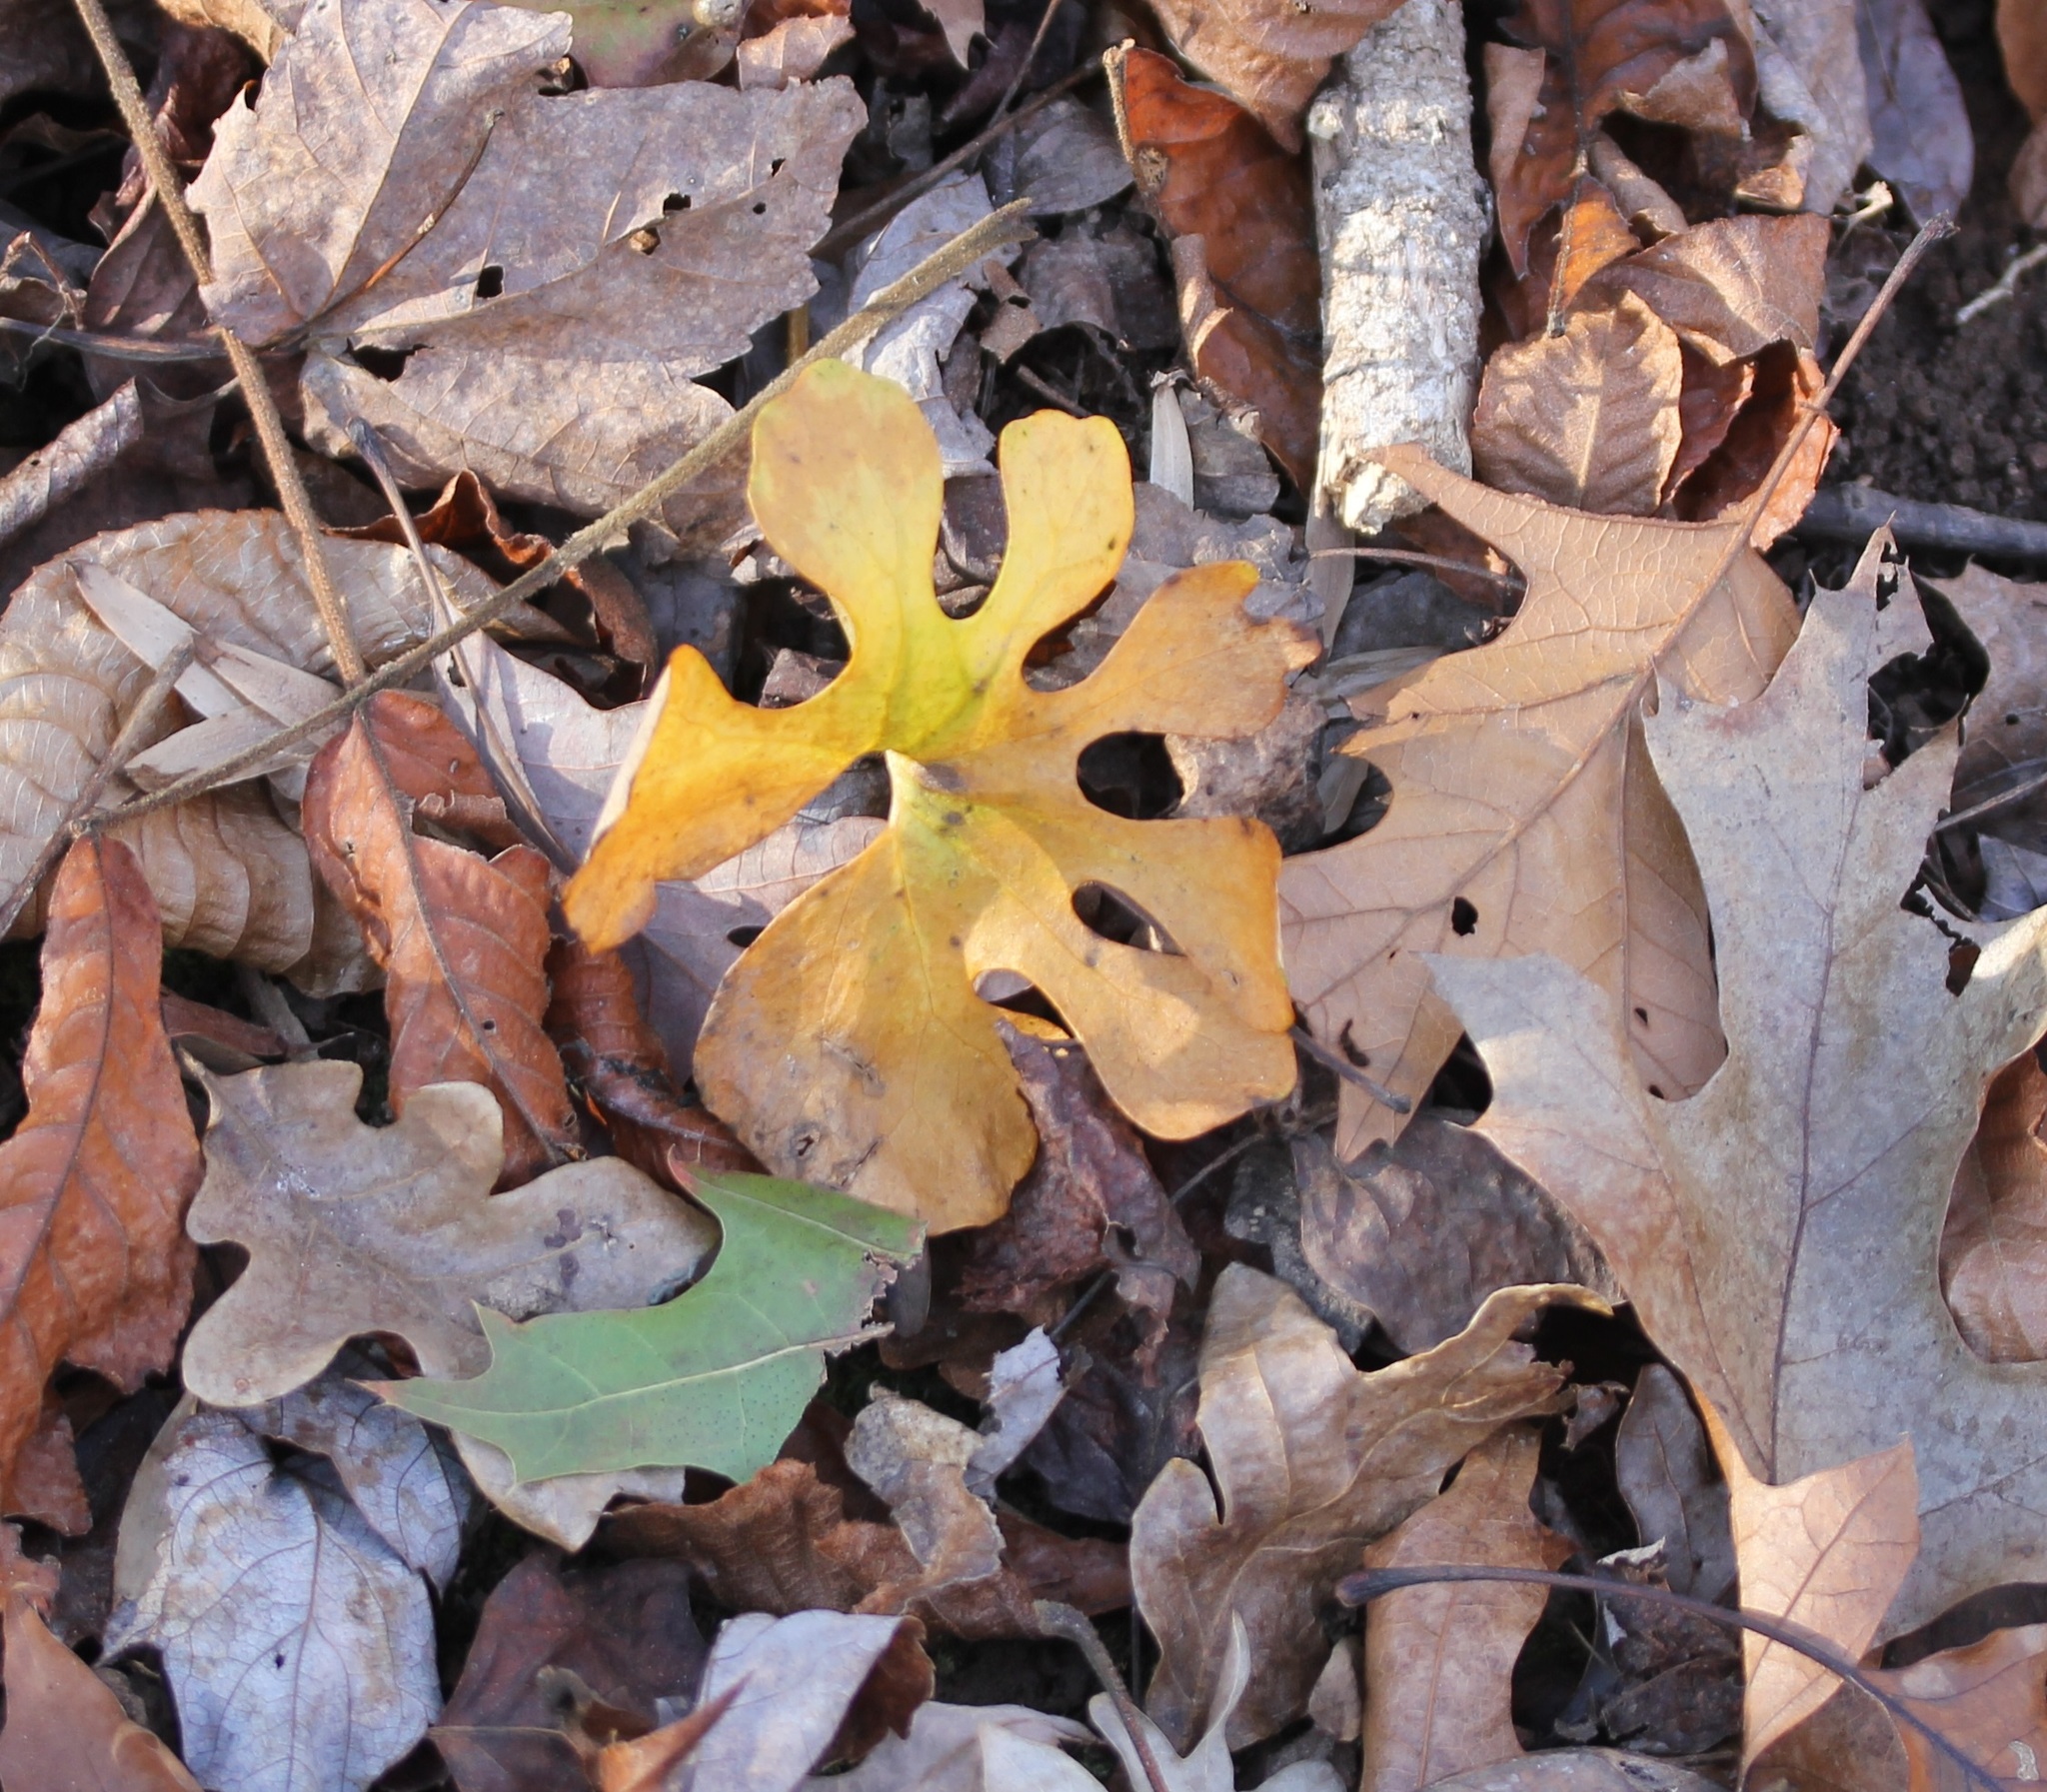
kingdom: Plantae
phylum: Tracheophyta
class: Magnoliopsida
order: Ranunculales
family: Papaveraceae
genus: Sanguinaria
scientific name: Sanguinaria canadensis
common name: Bloodroot
